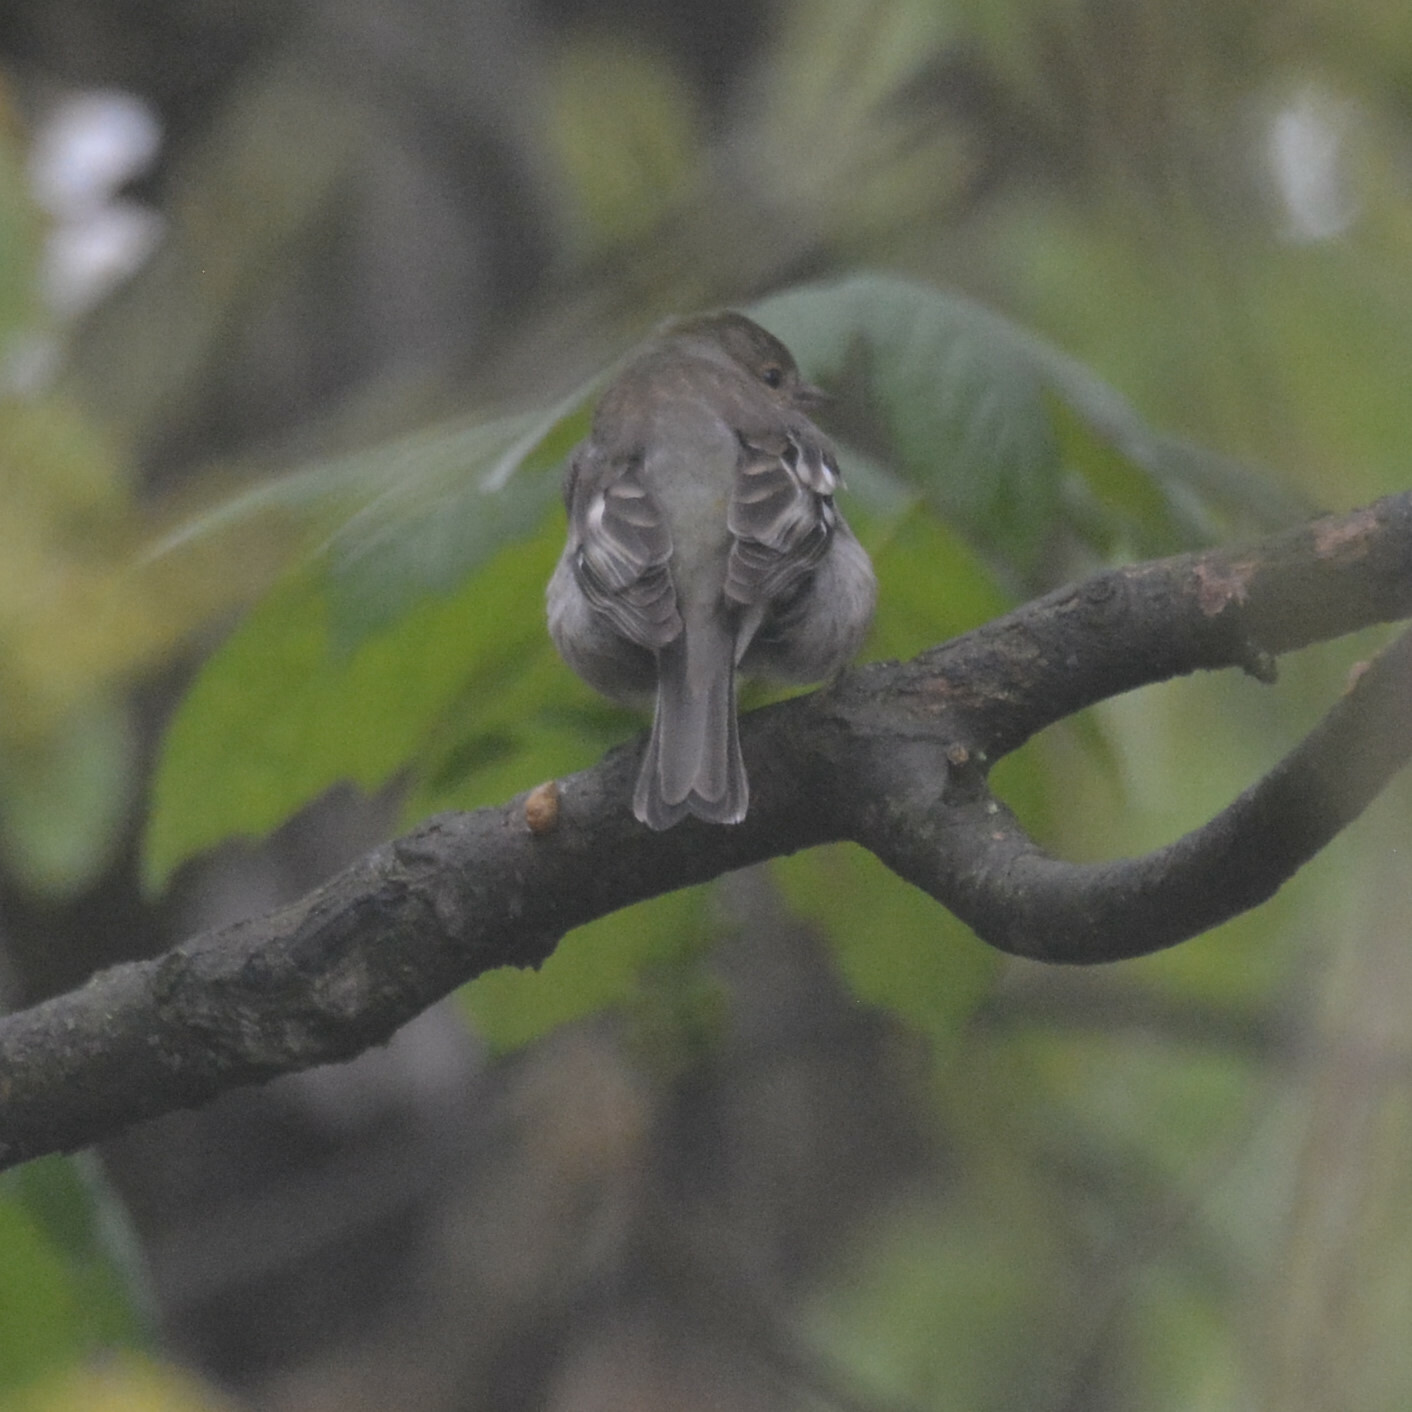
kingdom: Animalia
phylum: Chordata
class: Aves
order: Passeriformes
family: Fringillidae
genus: Fringilla
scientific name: Fringilla coelebs
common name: Common chaffinch
